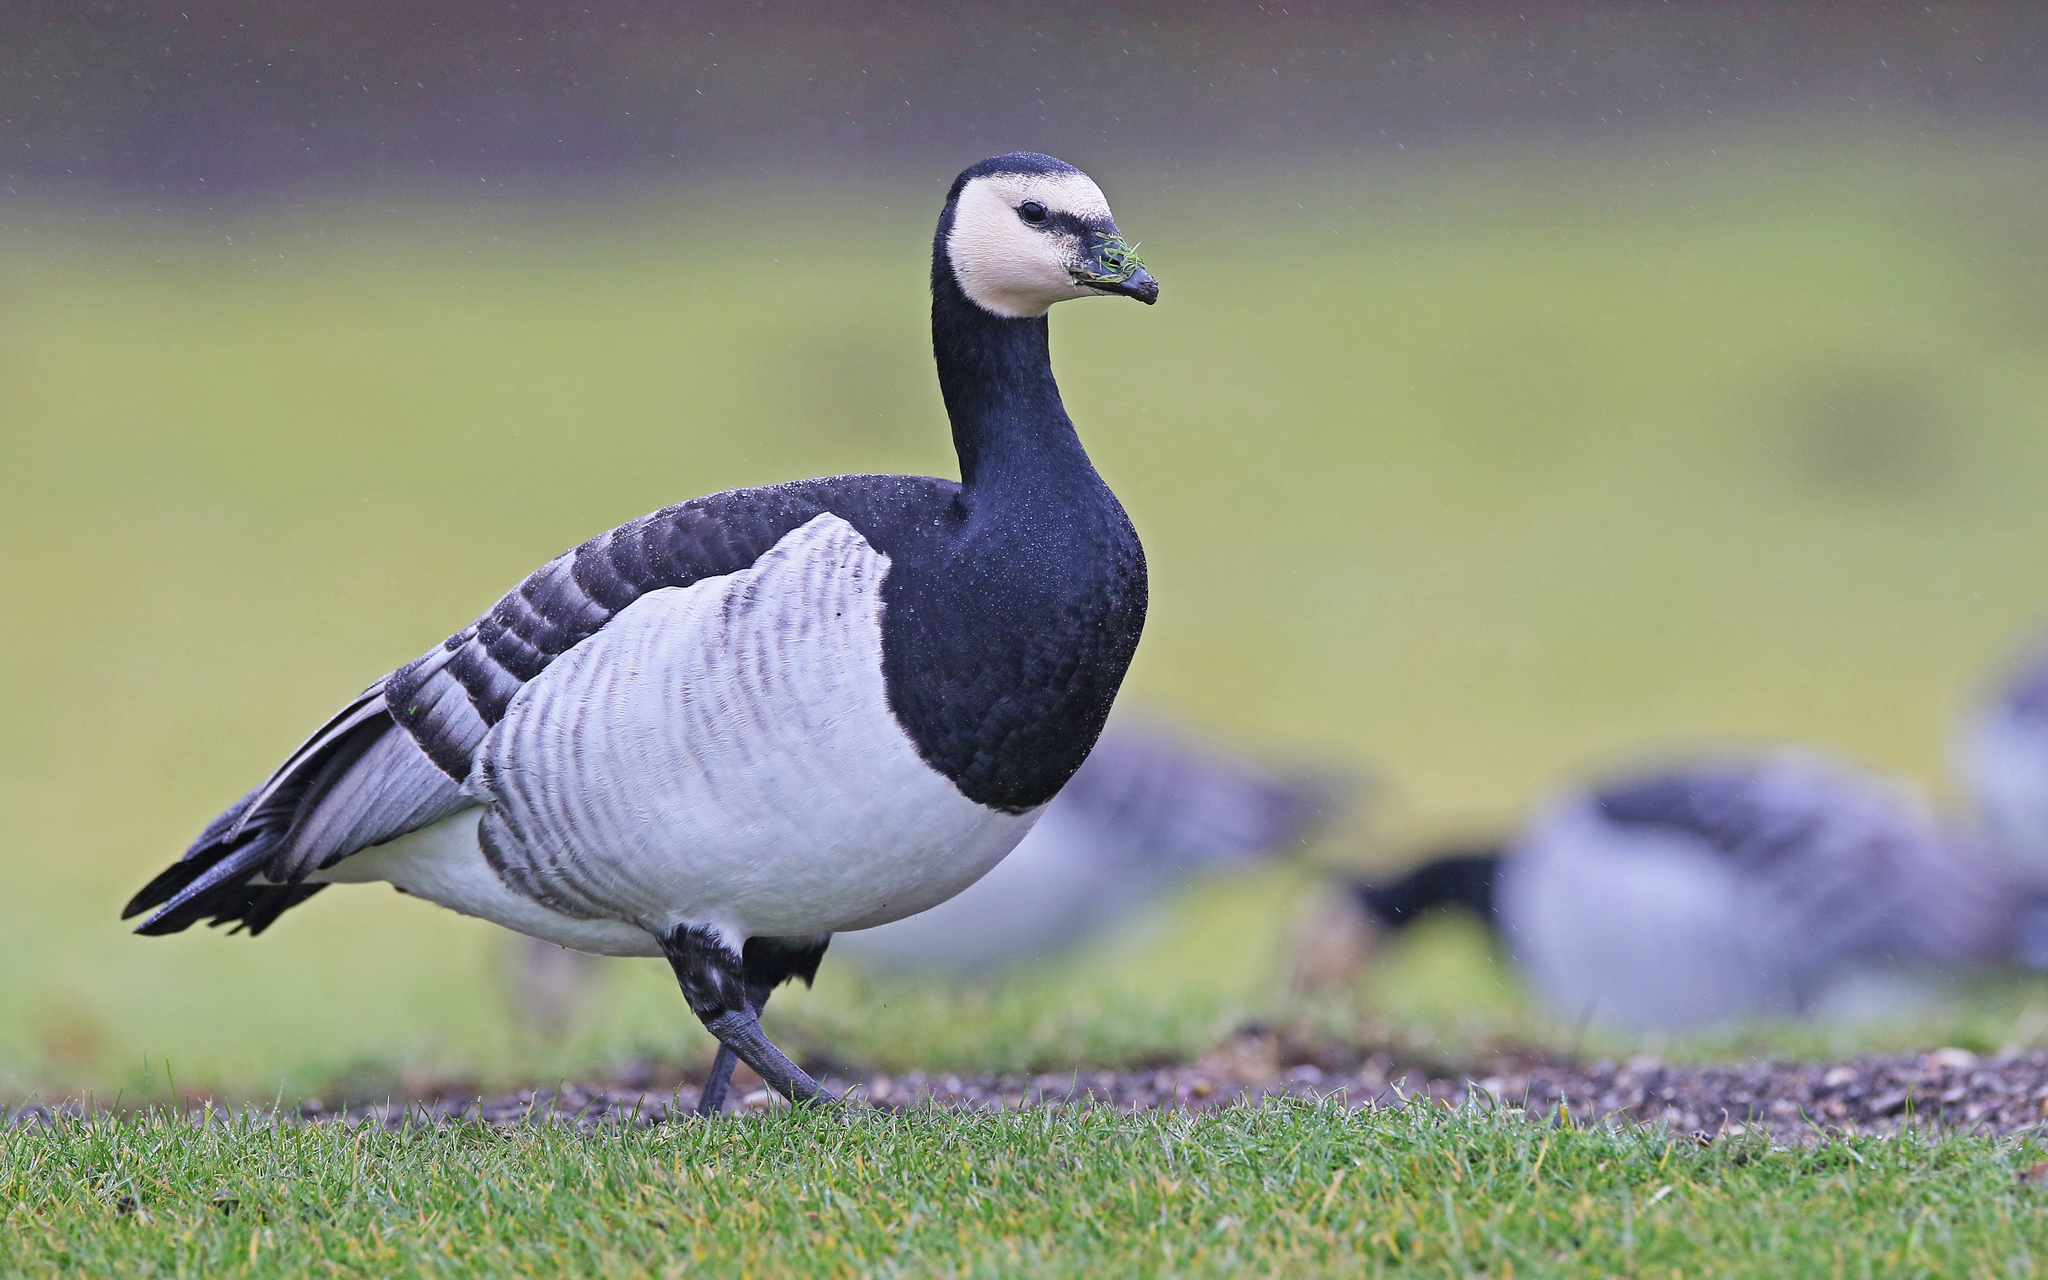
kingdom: Animalia
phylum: Chordata
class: Aves
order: Anseriformes
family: Anatidae
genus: Branta
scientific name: Branta leucopsis
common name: Barnacle goose
